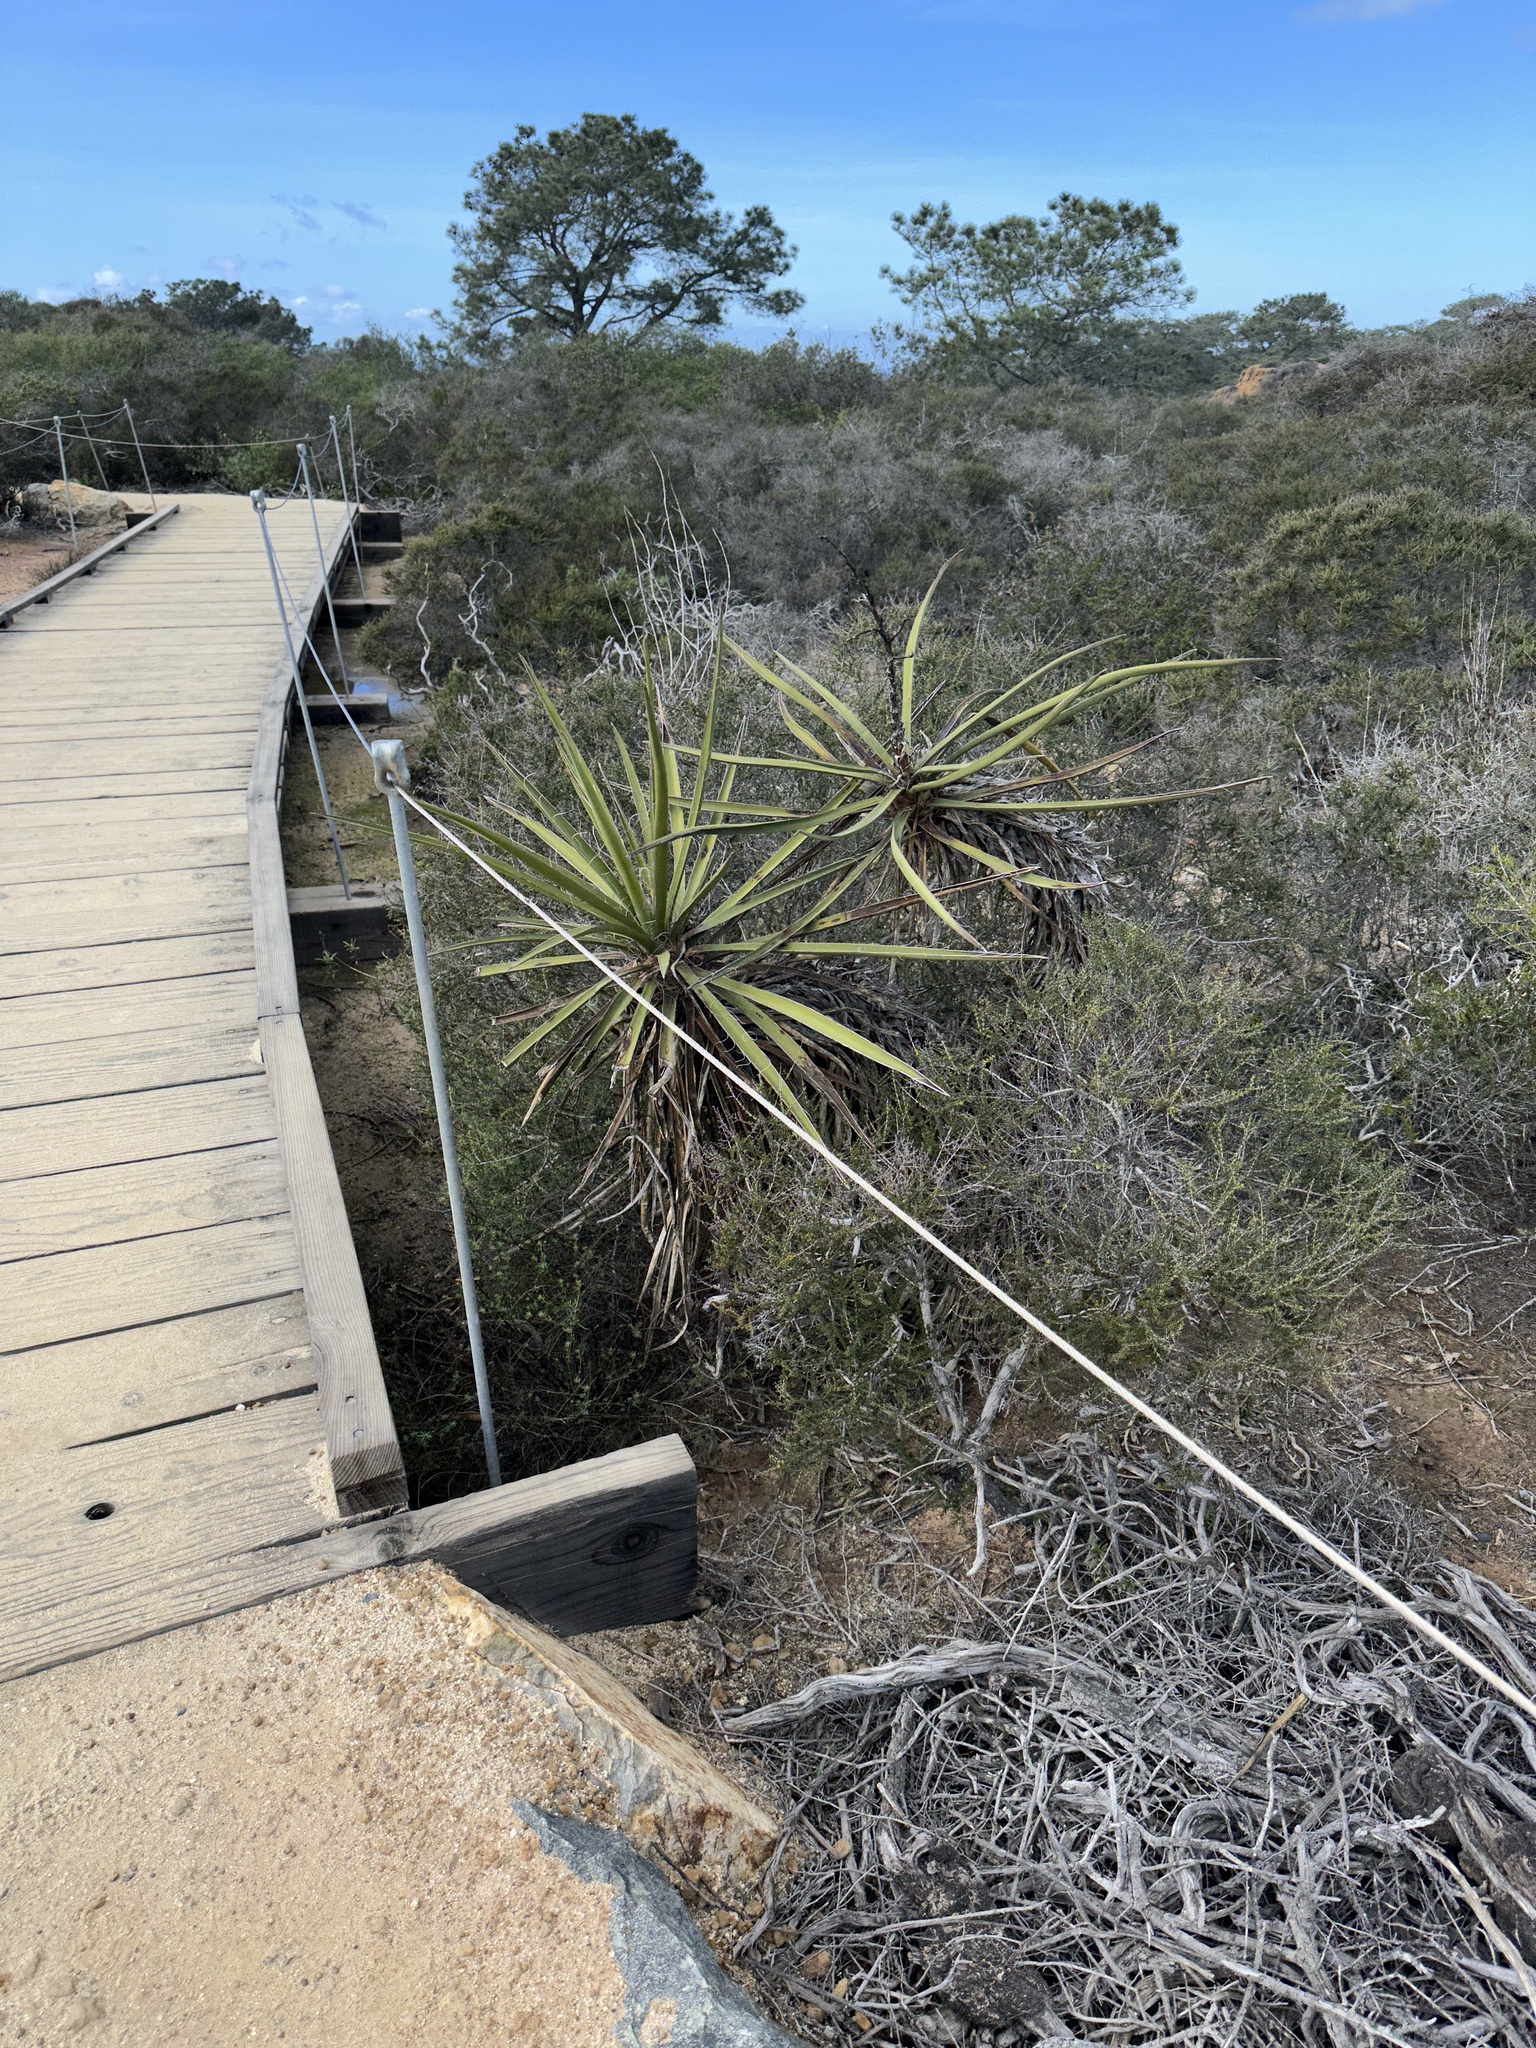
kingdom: Plantae
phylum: Tracheophyta
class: Liliopsida
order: Asparagales
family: Asparagaceae
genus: Yucca
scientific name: Yucca schidigera
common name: Mojave yucca
